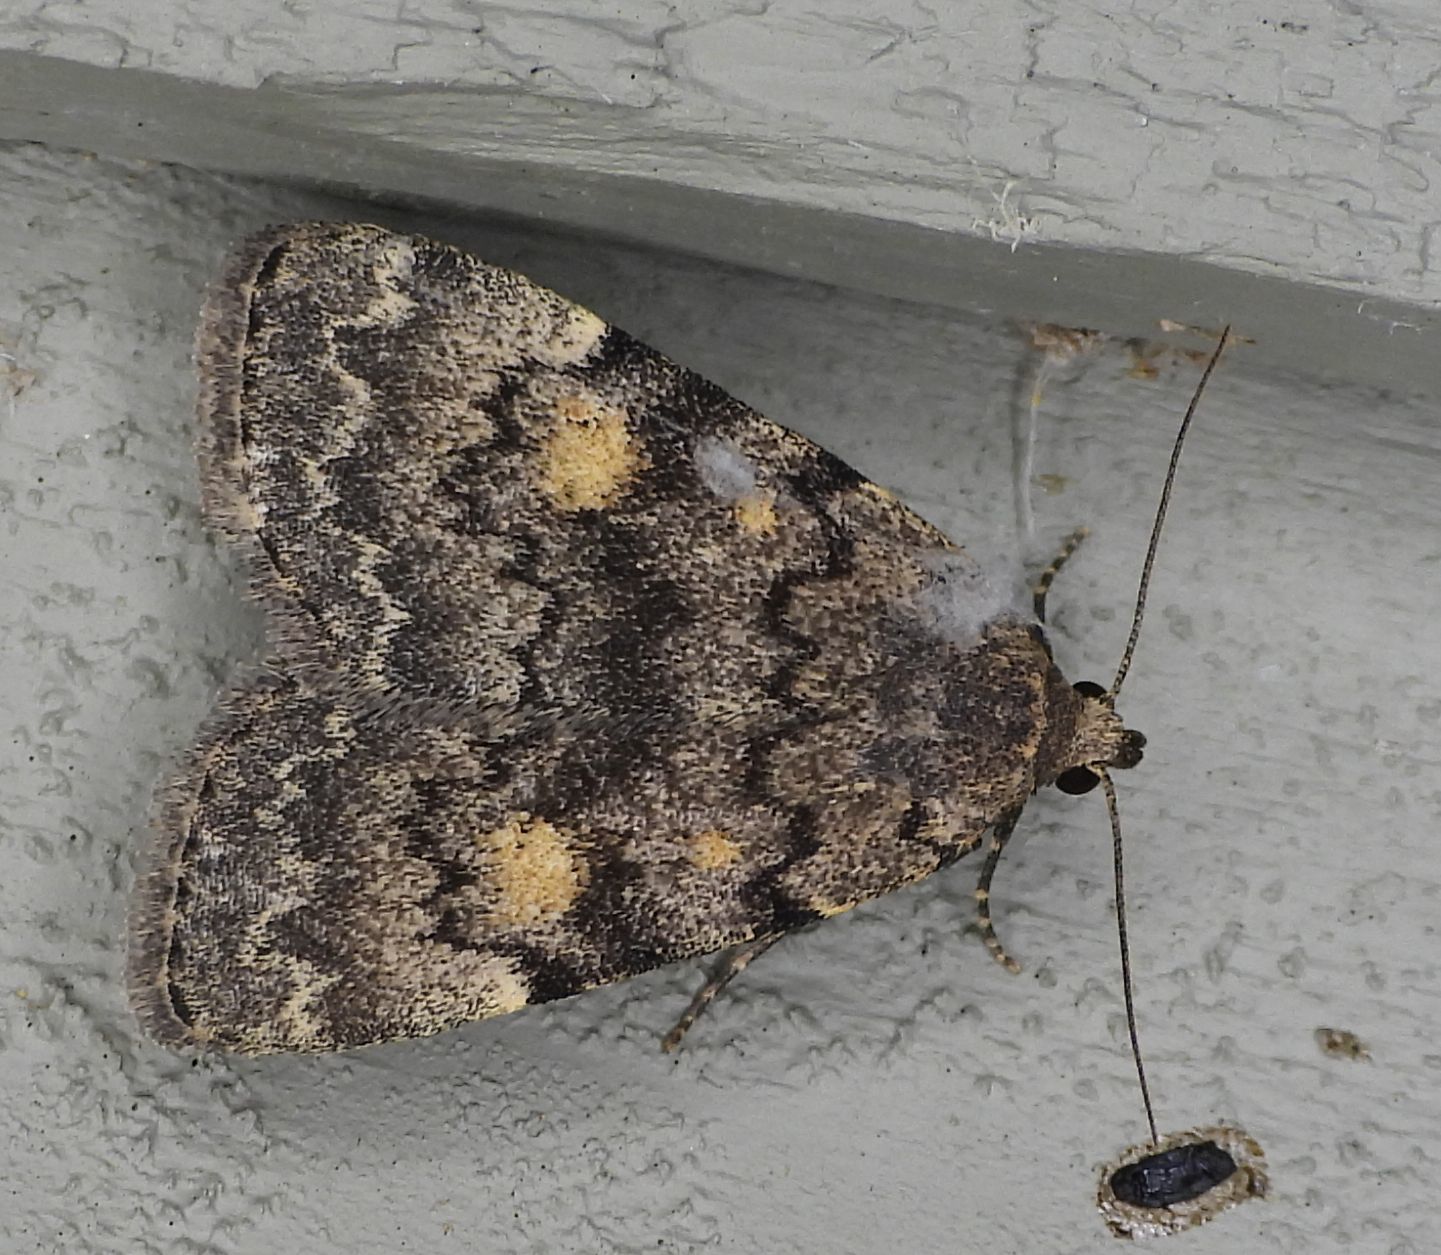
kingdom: Animalia
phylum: Arthropoda
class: Insecta
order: Lepidoptera
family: Erebidae
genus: Idia
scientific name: Idia aemula
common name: Common idia moth
